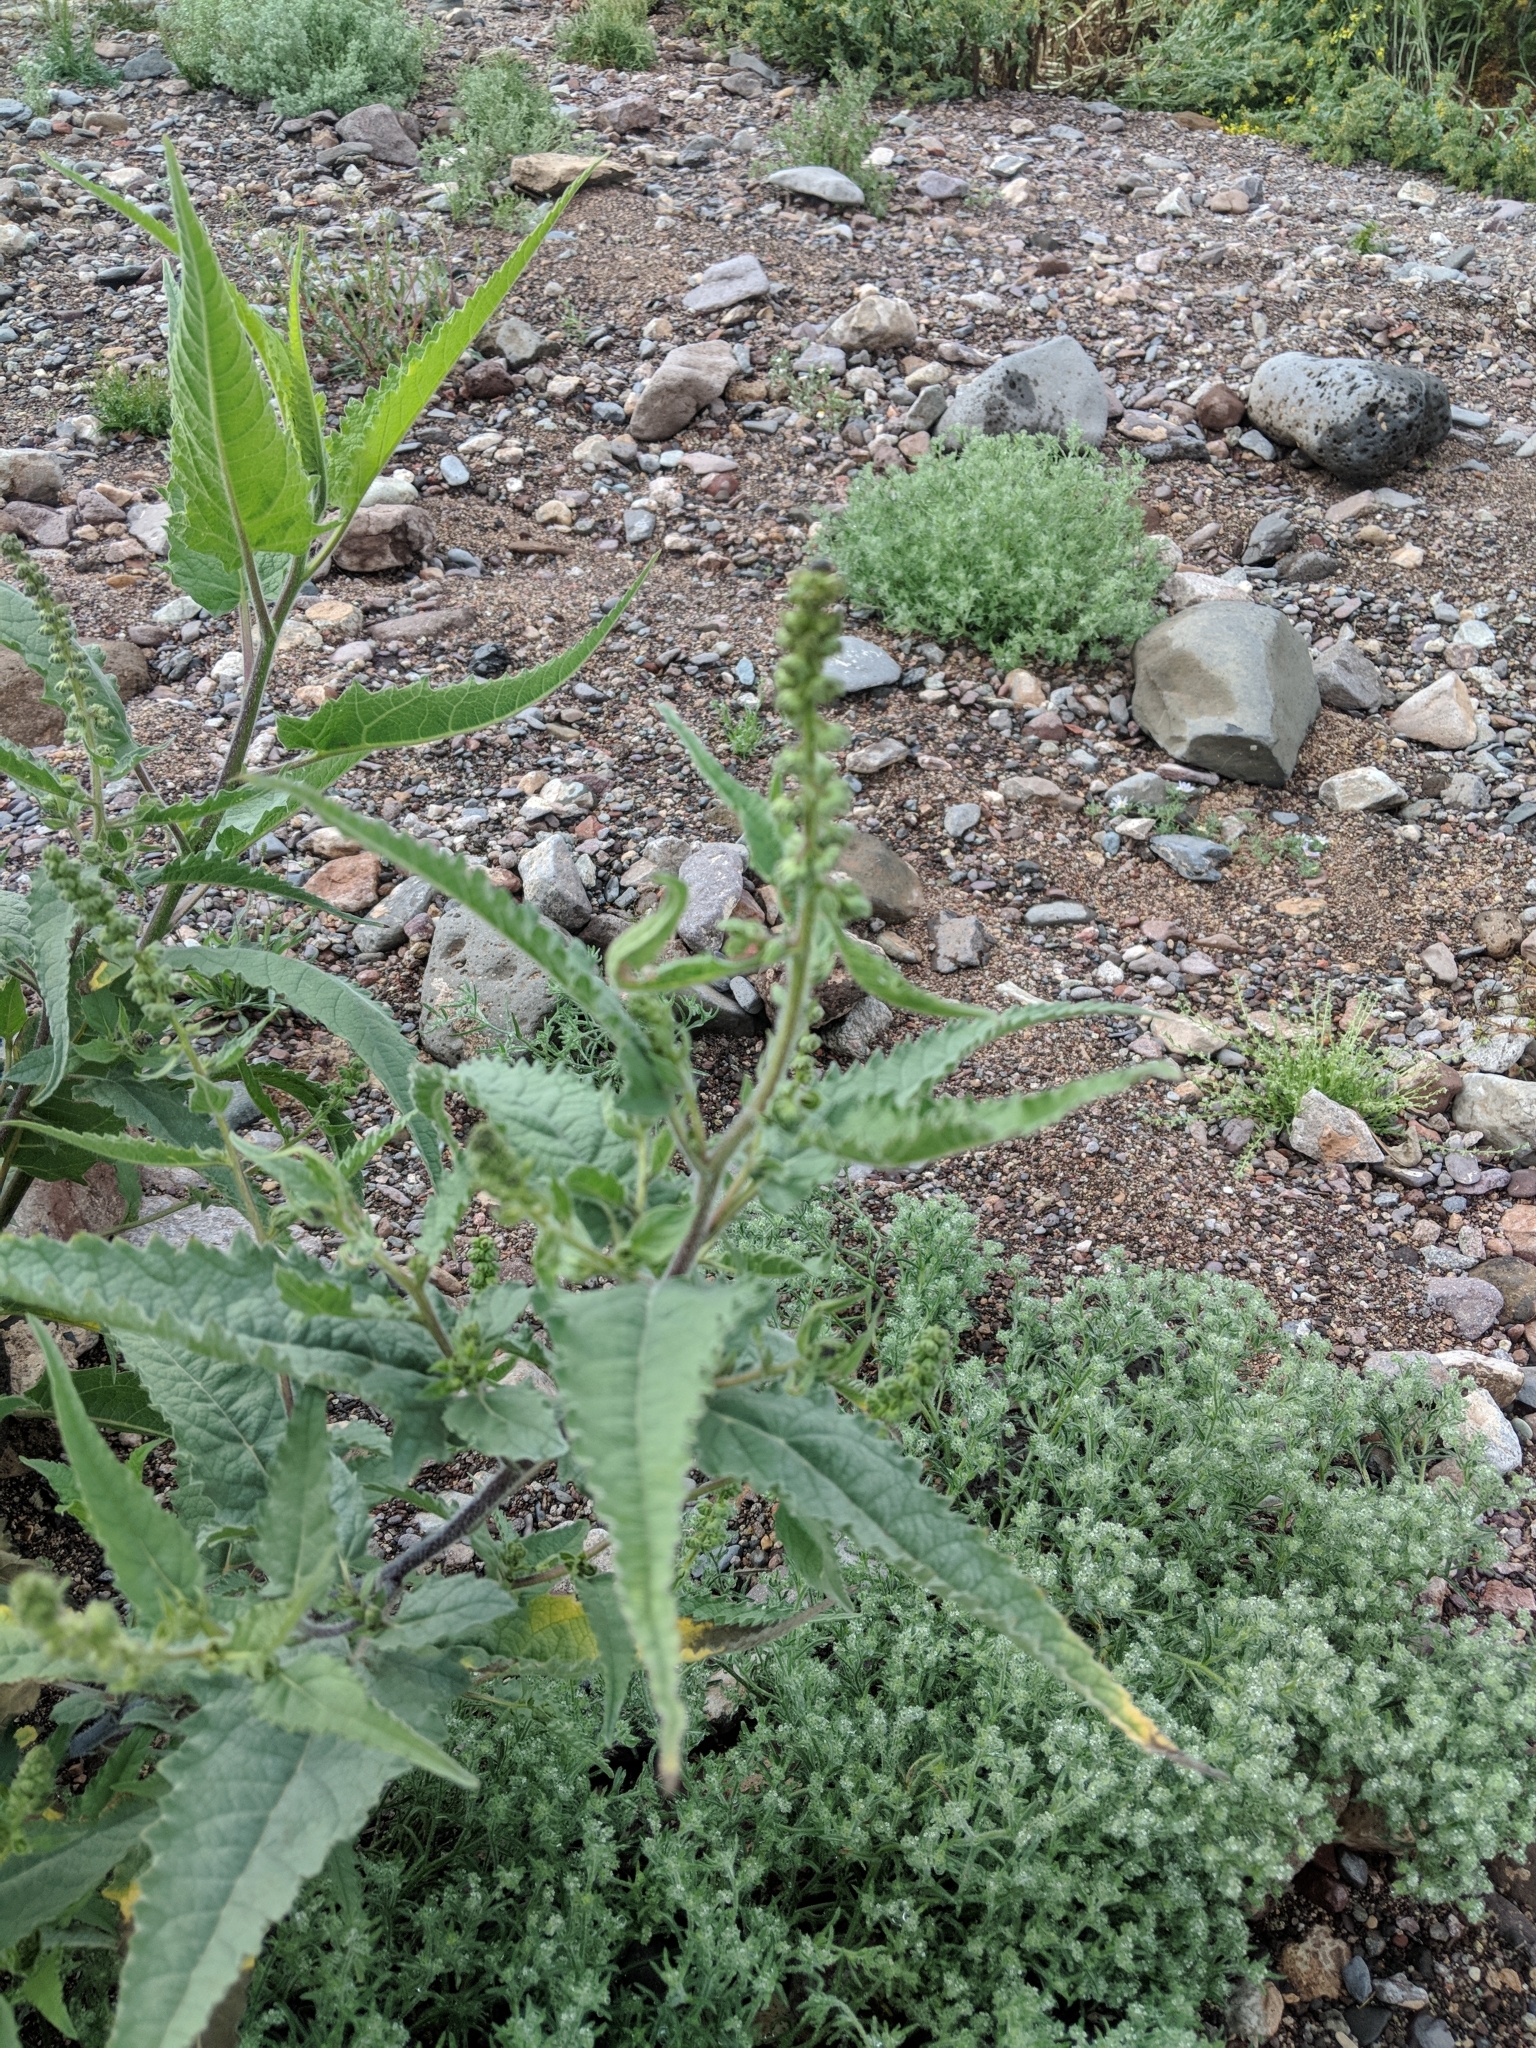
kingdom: Plantae
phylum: Tracheophyta
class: Magnoliopsida
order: Asterales
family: Asteraceae
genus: Ambrosia
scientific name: Ambrosia ambrosioides
